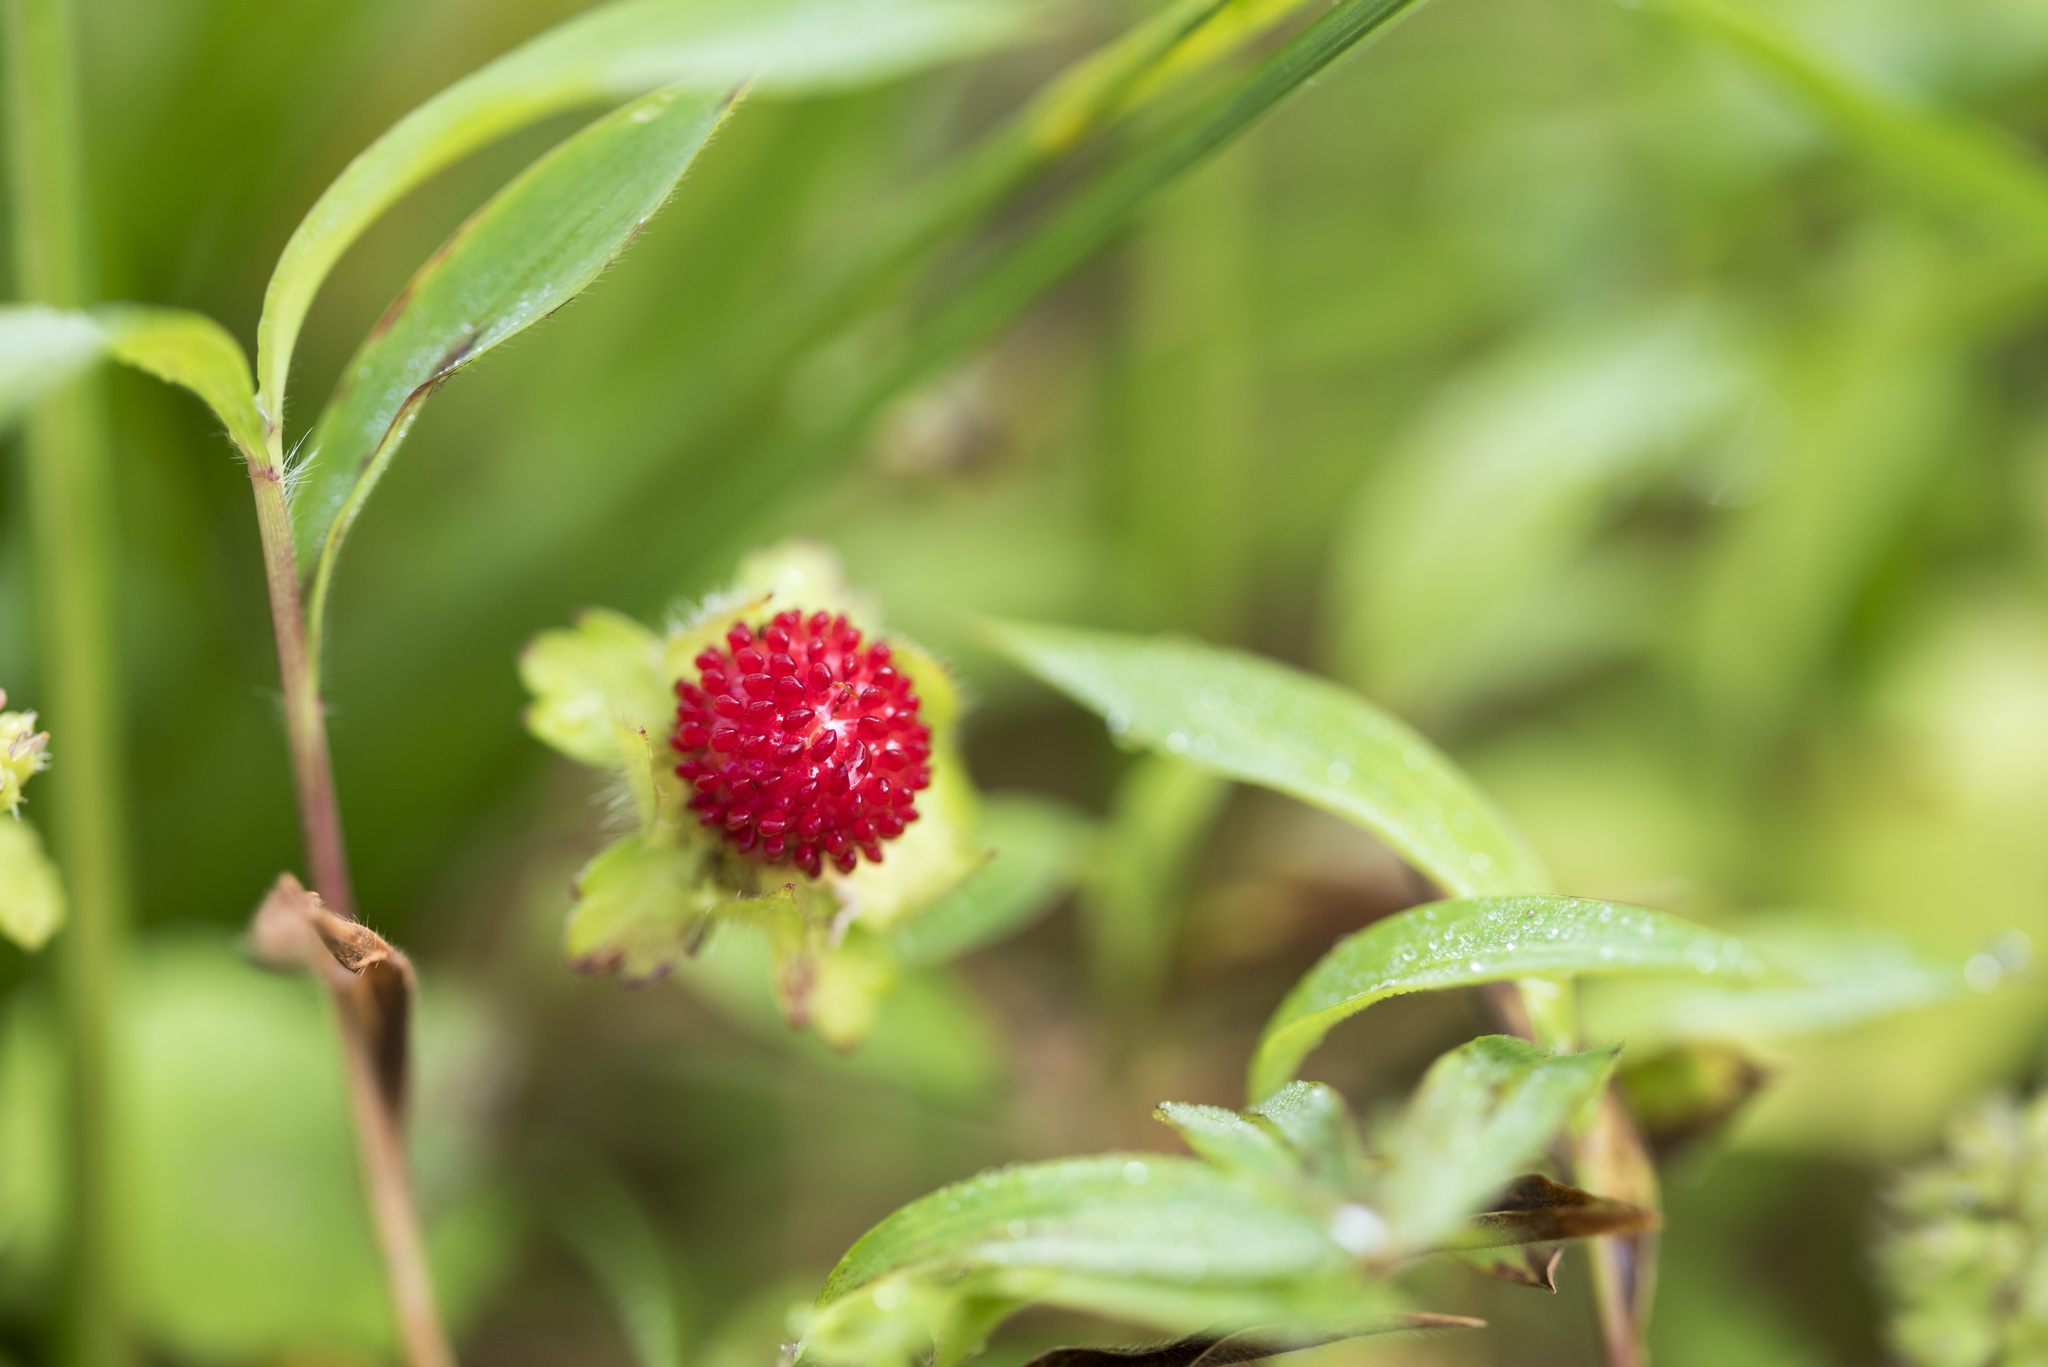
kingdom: Plantae
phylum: Tracheophyta
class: Magnoliopsida
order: Rosales
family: Rosaceae
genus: Potentilla
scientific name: Potentilla indica
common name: Yellow-flowered strawberry
